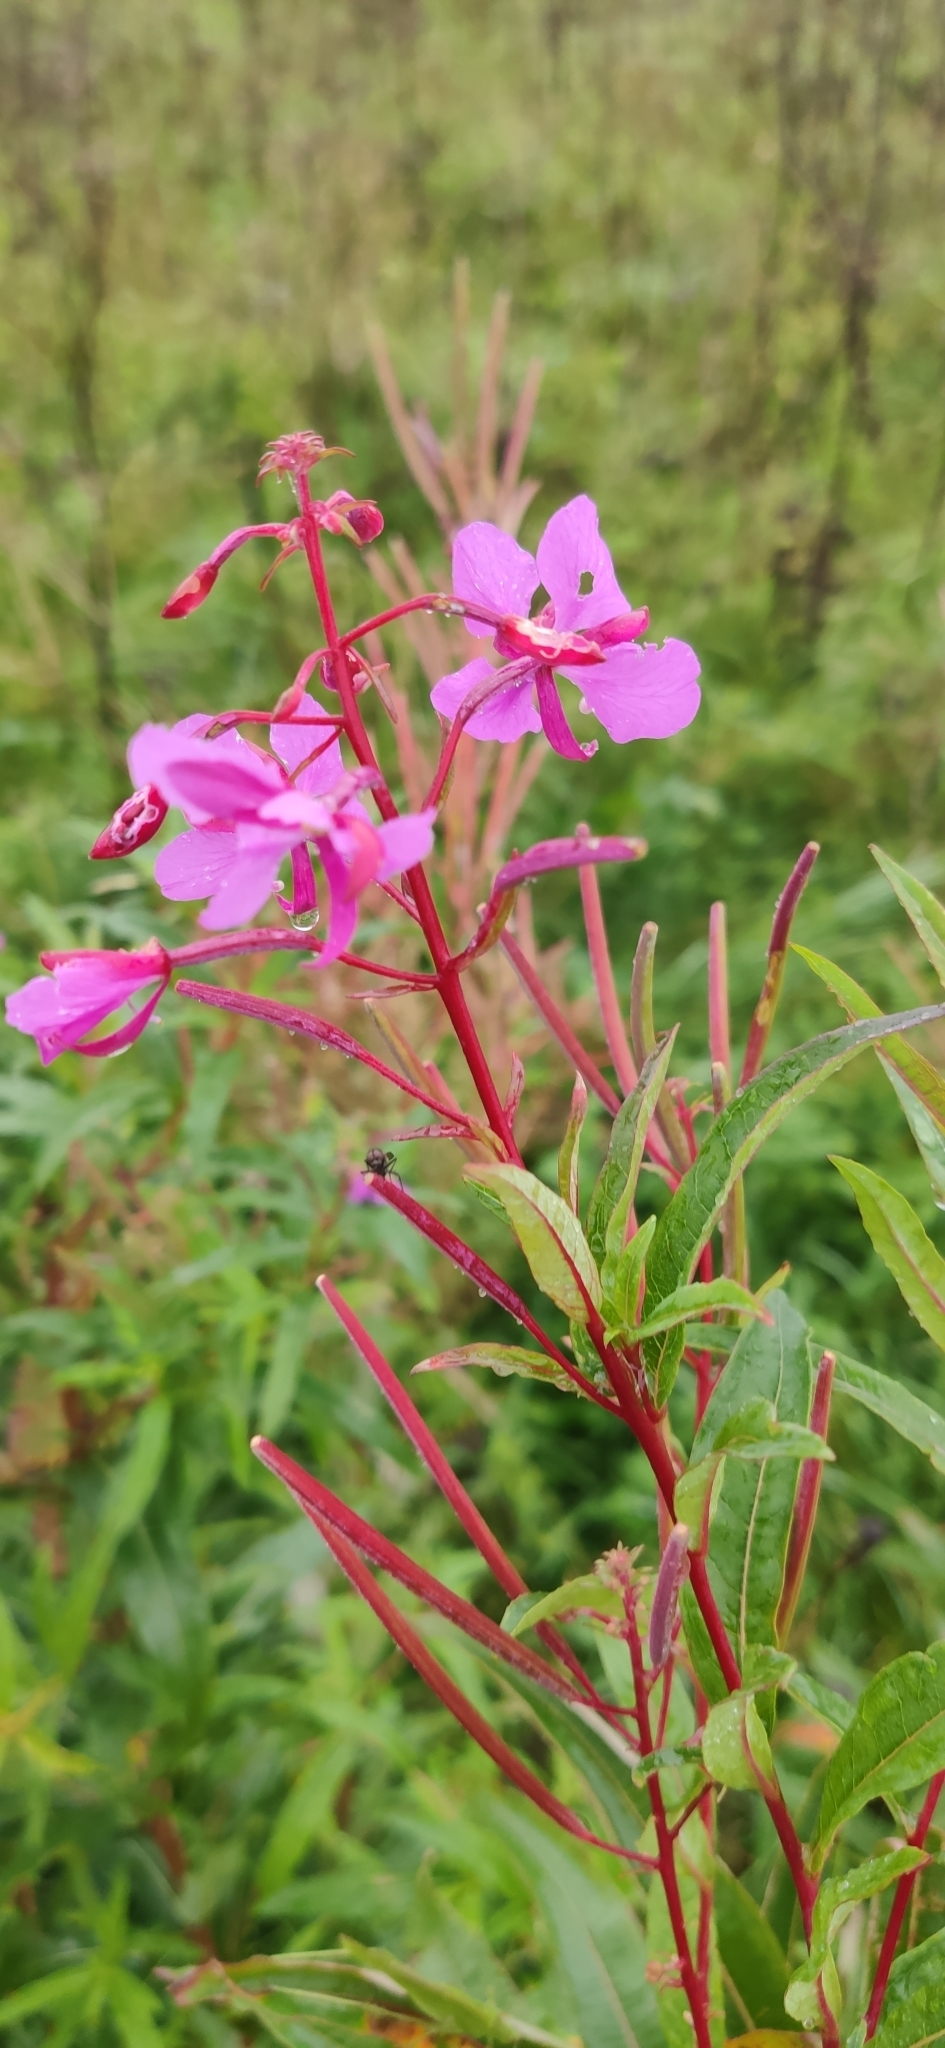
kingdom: Plantae
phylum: Tracheophyta
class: Magnoliopsida
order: Myrtales
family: Onagraceae
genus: Chamaenerion
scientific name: Chamaenerion angustifolium
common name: Fireweed
